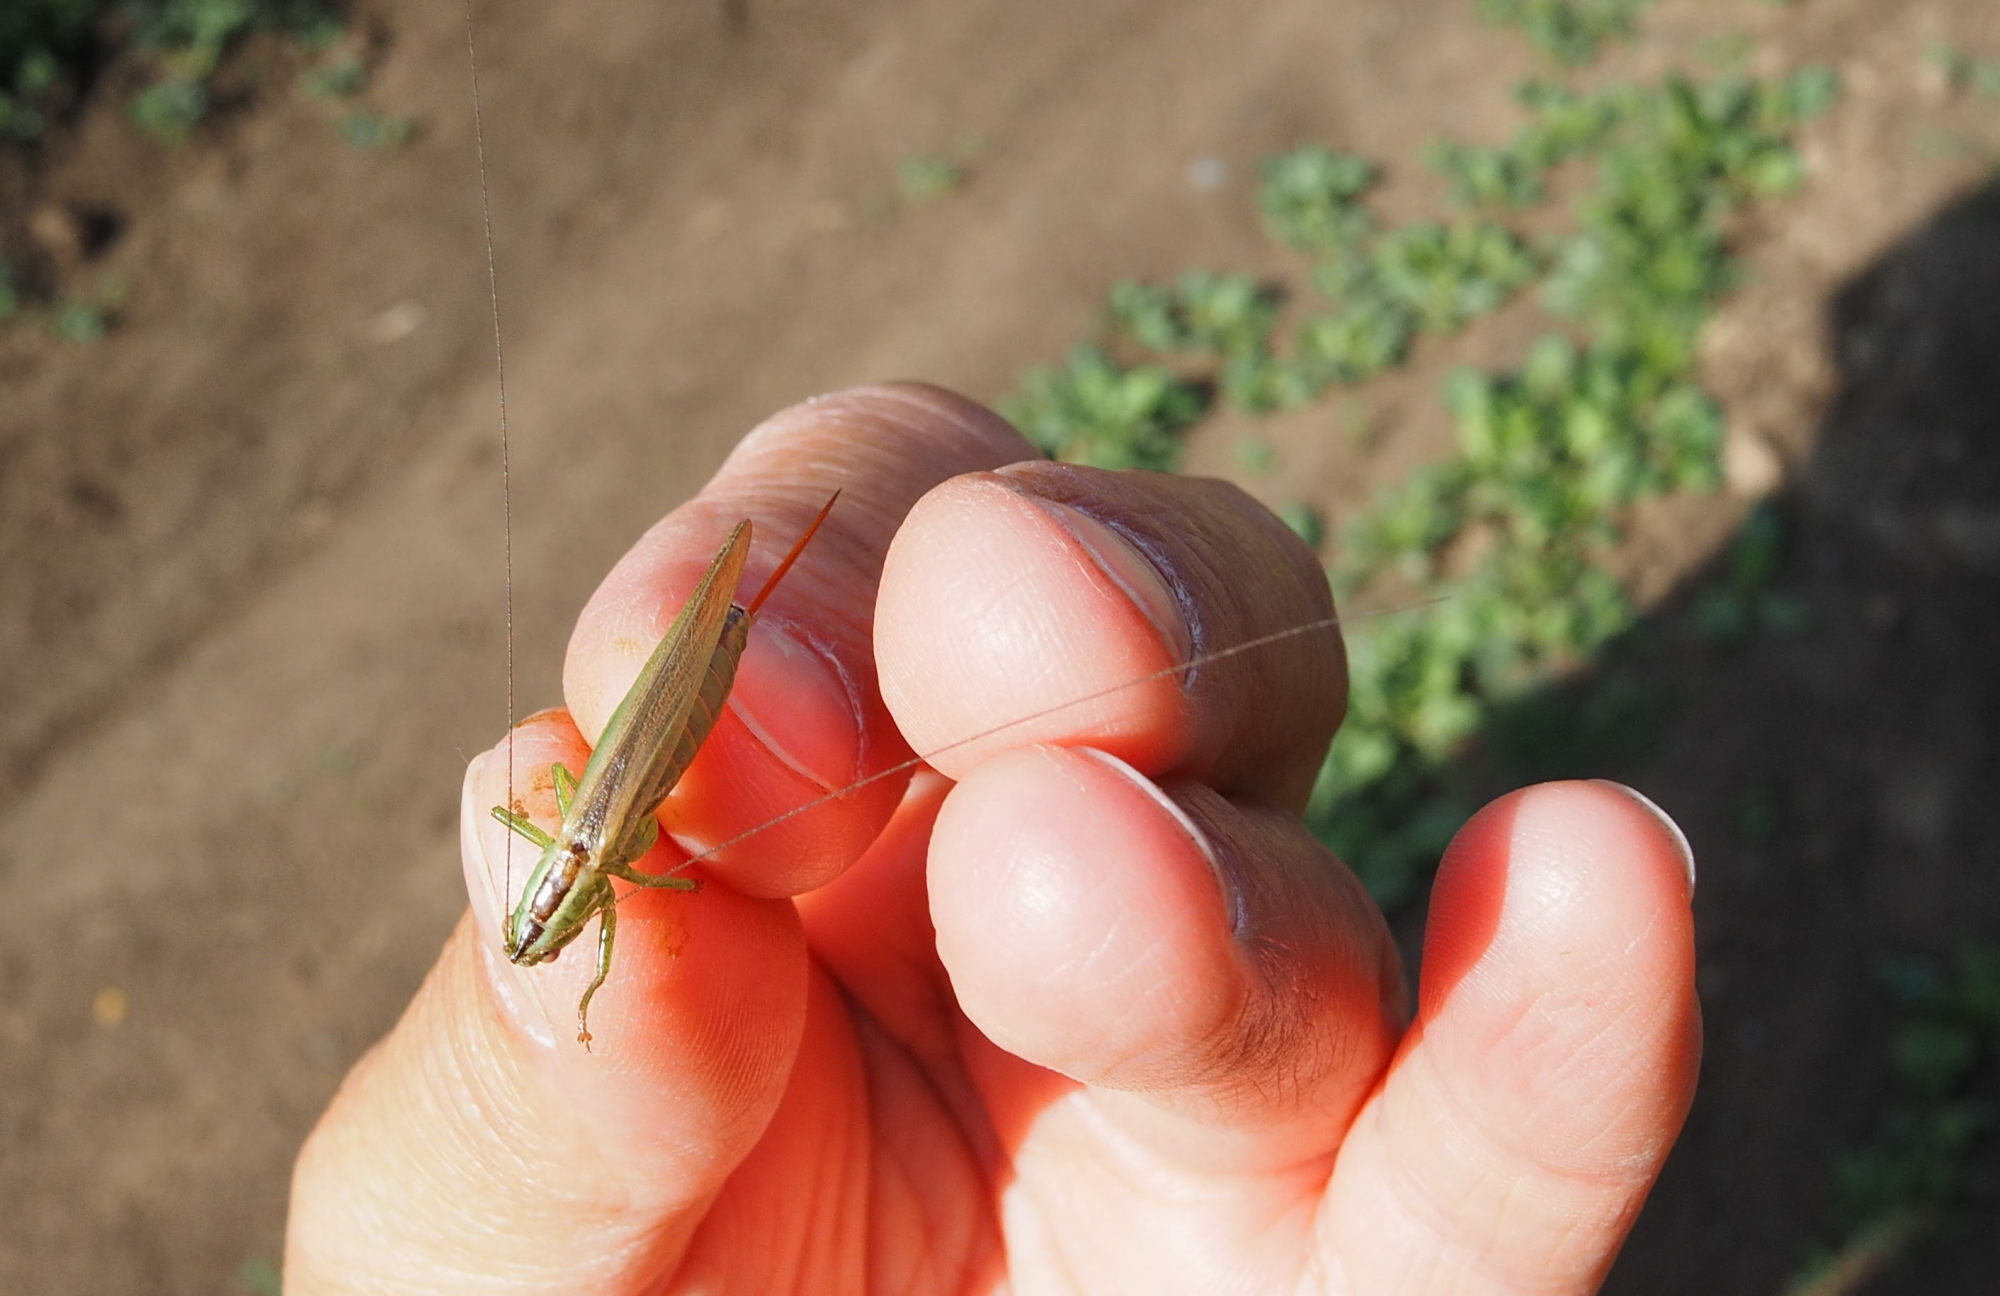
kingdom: Animalia
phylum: Arthropoda
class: Insecta
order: Orthoptera
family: Tettigoniidae
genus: Conocephalus
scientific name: Conocephalus fuscus
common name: Long-winged conehead
